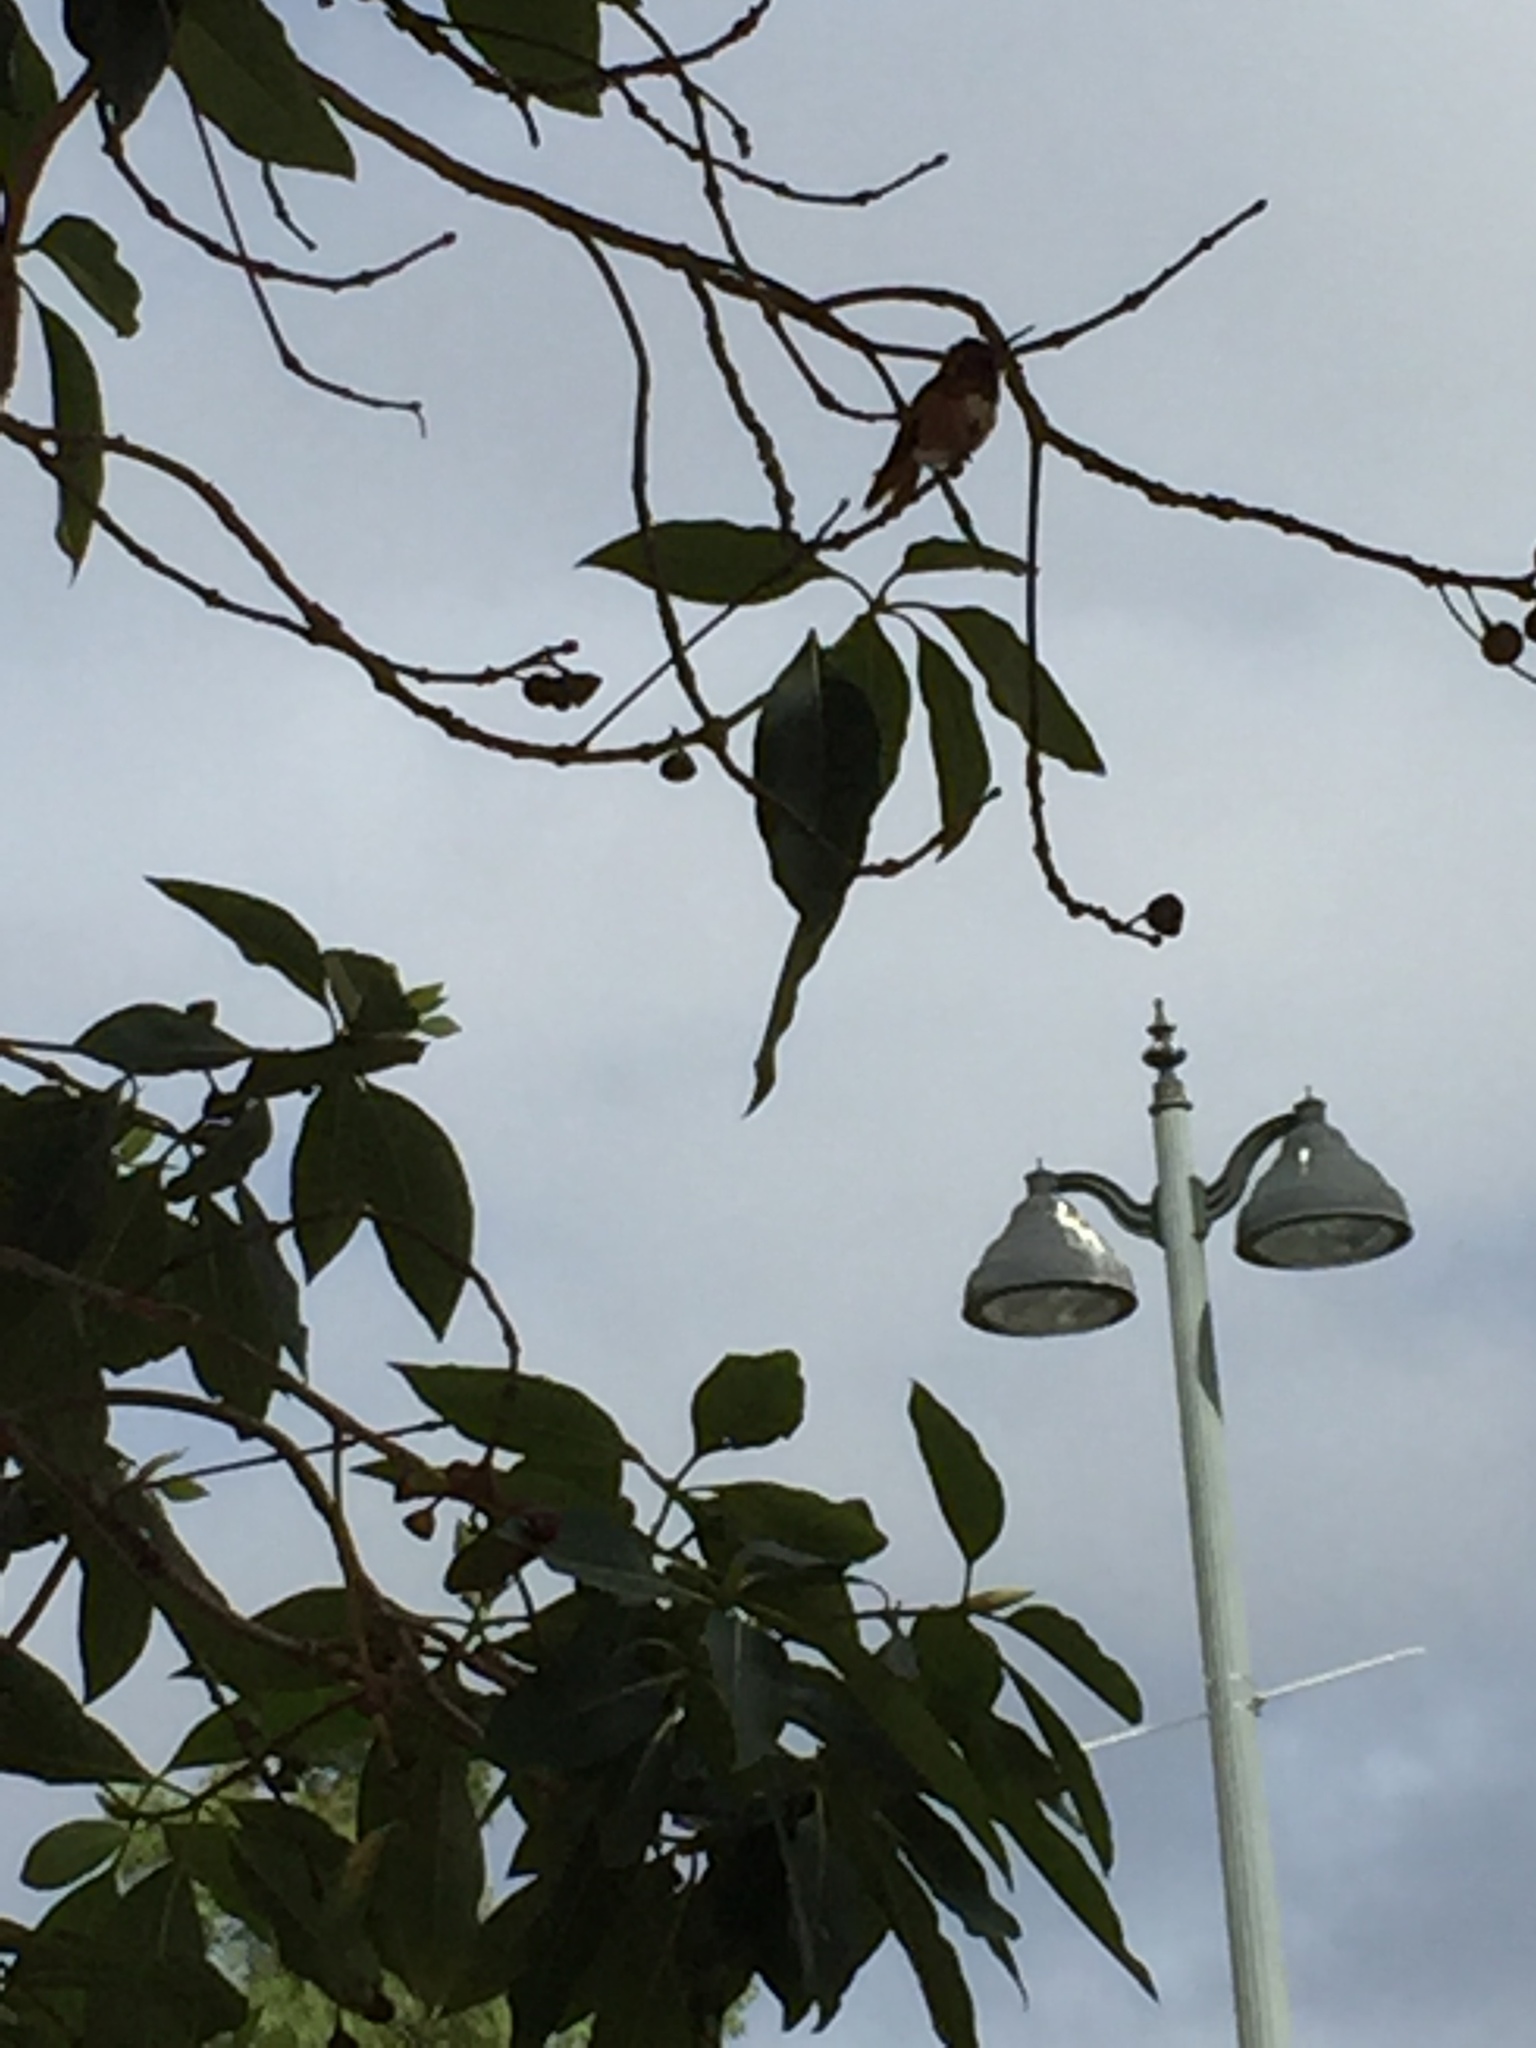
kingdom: Animalia
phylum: Chordata
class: Aves
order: Apodiformes
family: Trochilidae
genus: Selasphorus
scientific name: Selasphorus sasin
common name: Allen's hummingbird
